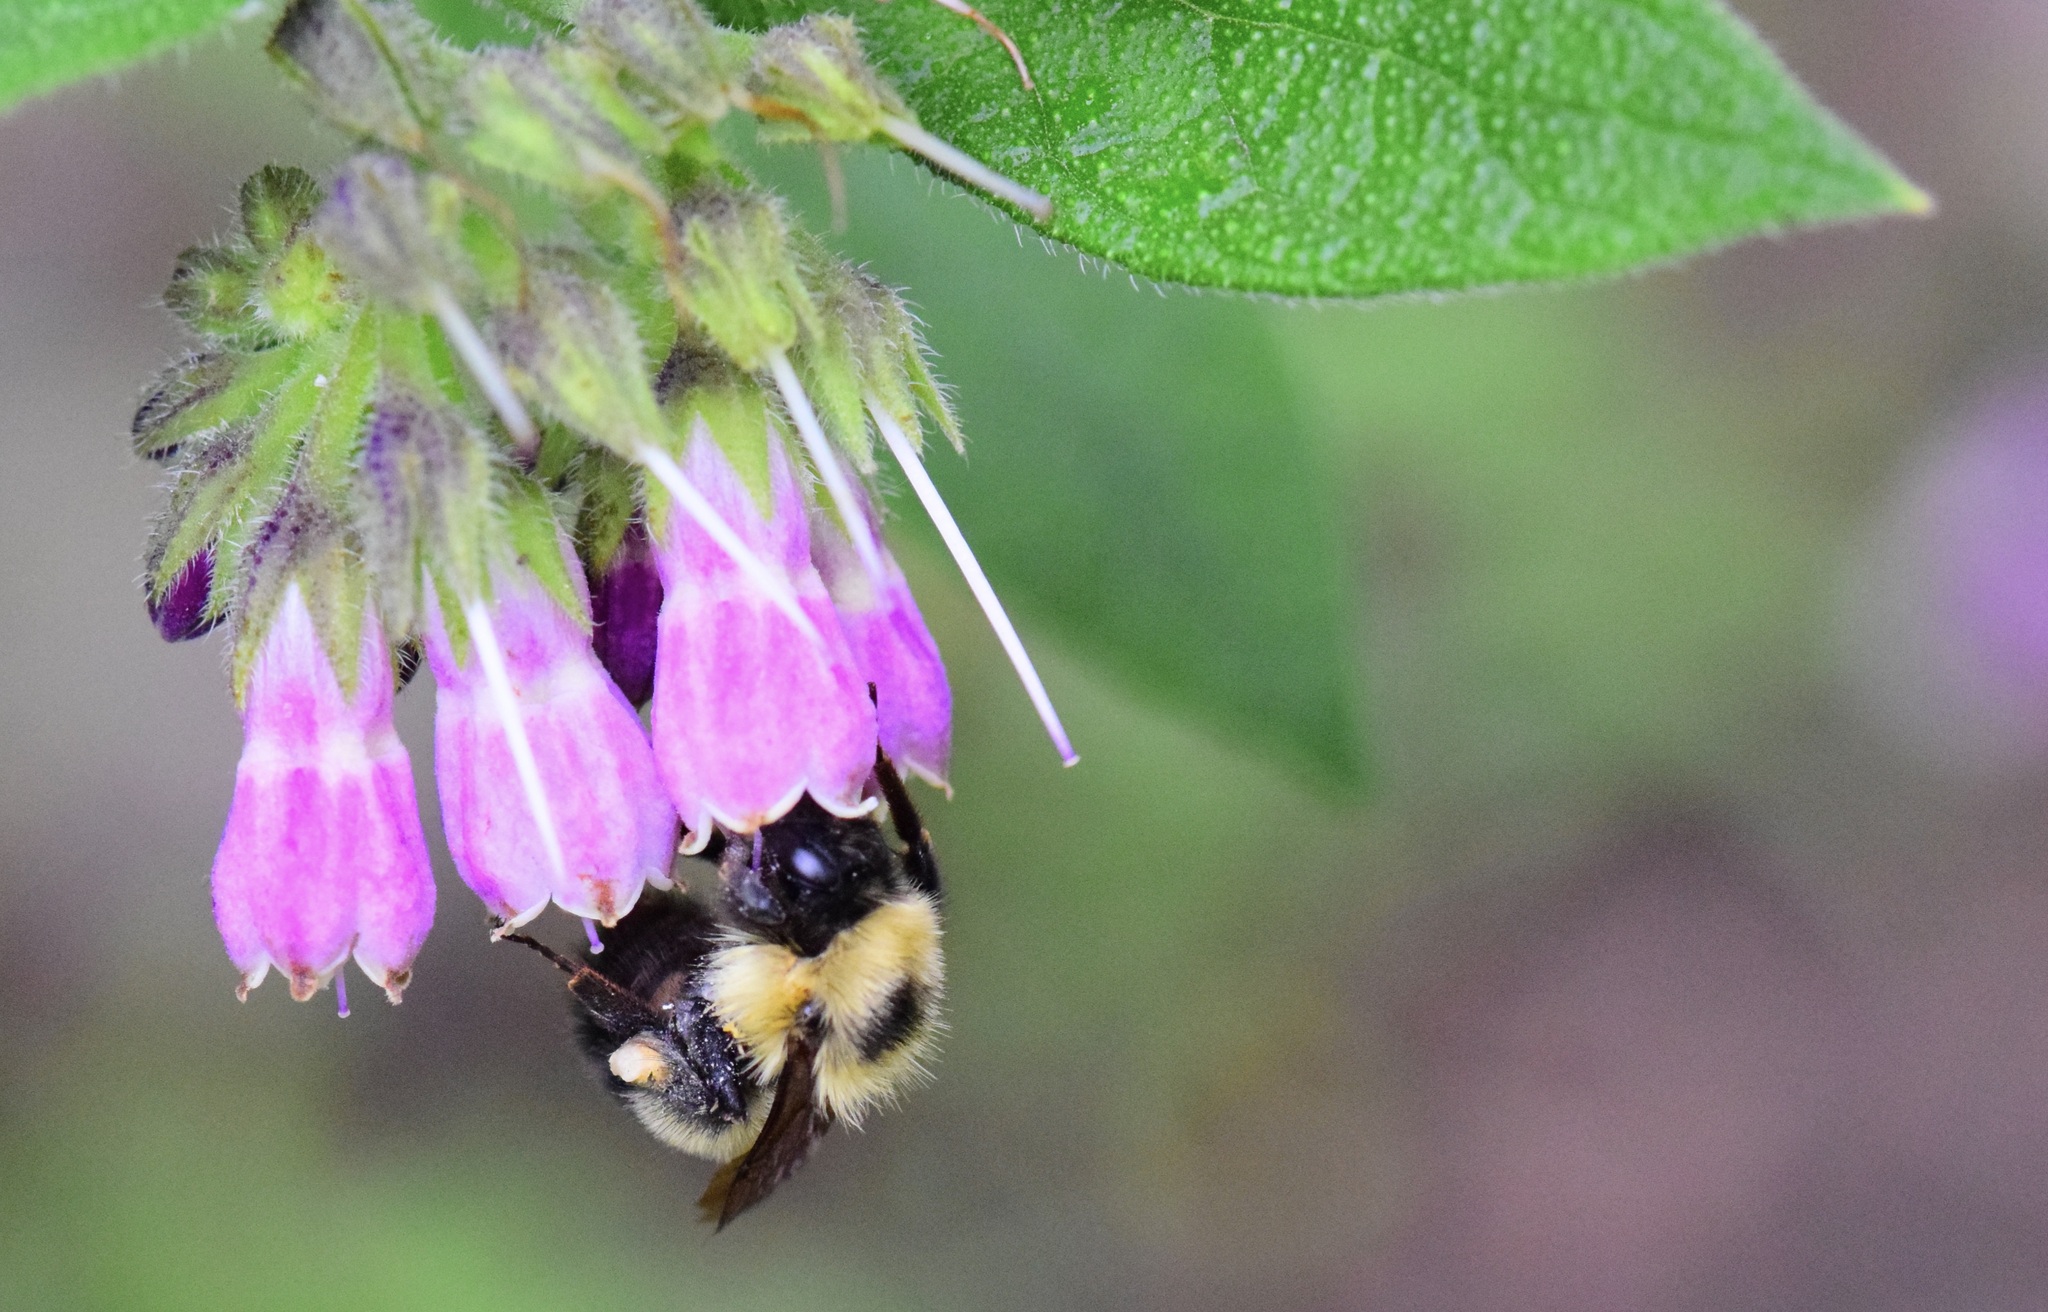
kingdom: Animalia
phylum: Arthropoda
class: Insecta
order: Hymenoptera
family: Apidae
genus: Bombus
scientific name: Bombus vagans
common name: Half-black bumble bee
